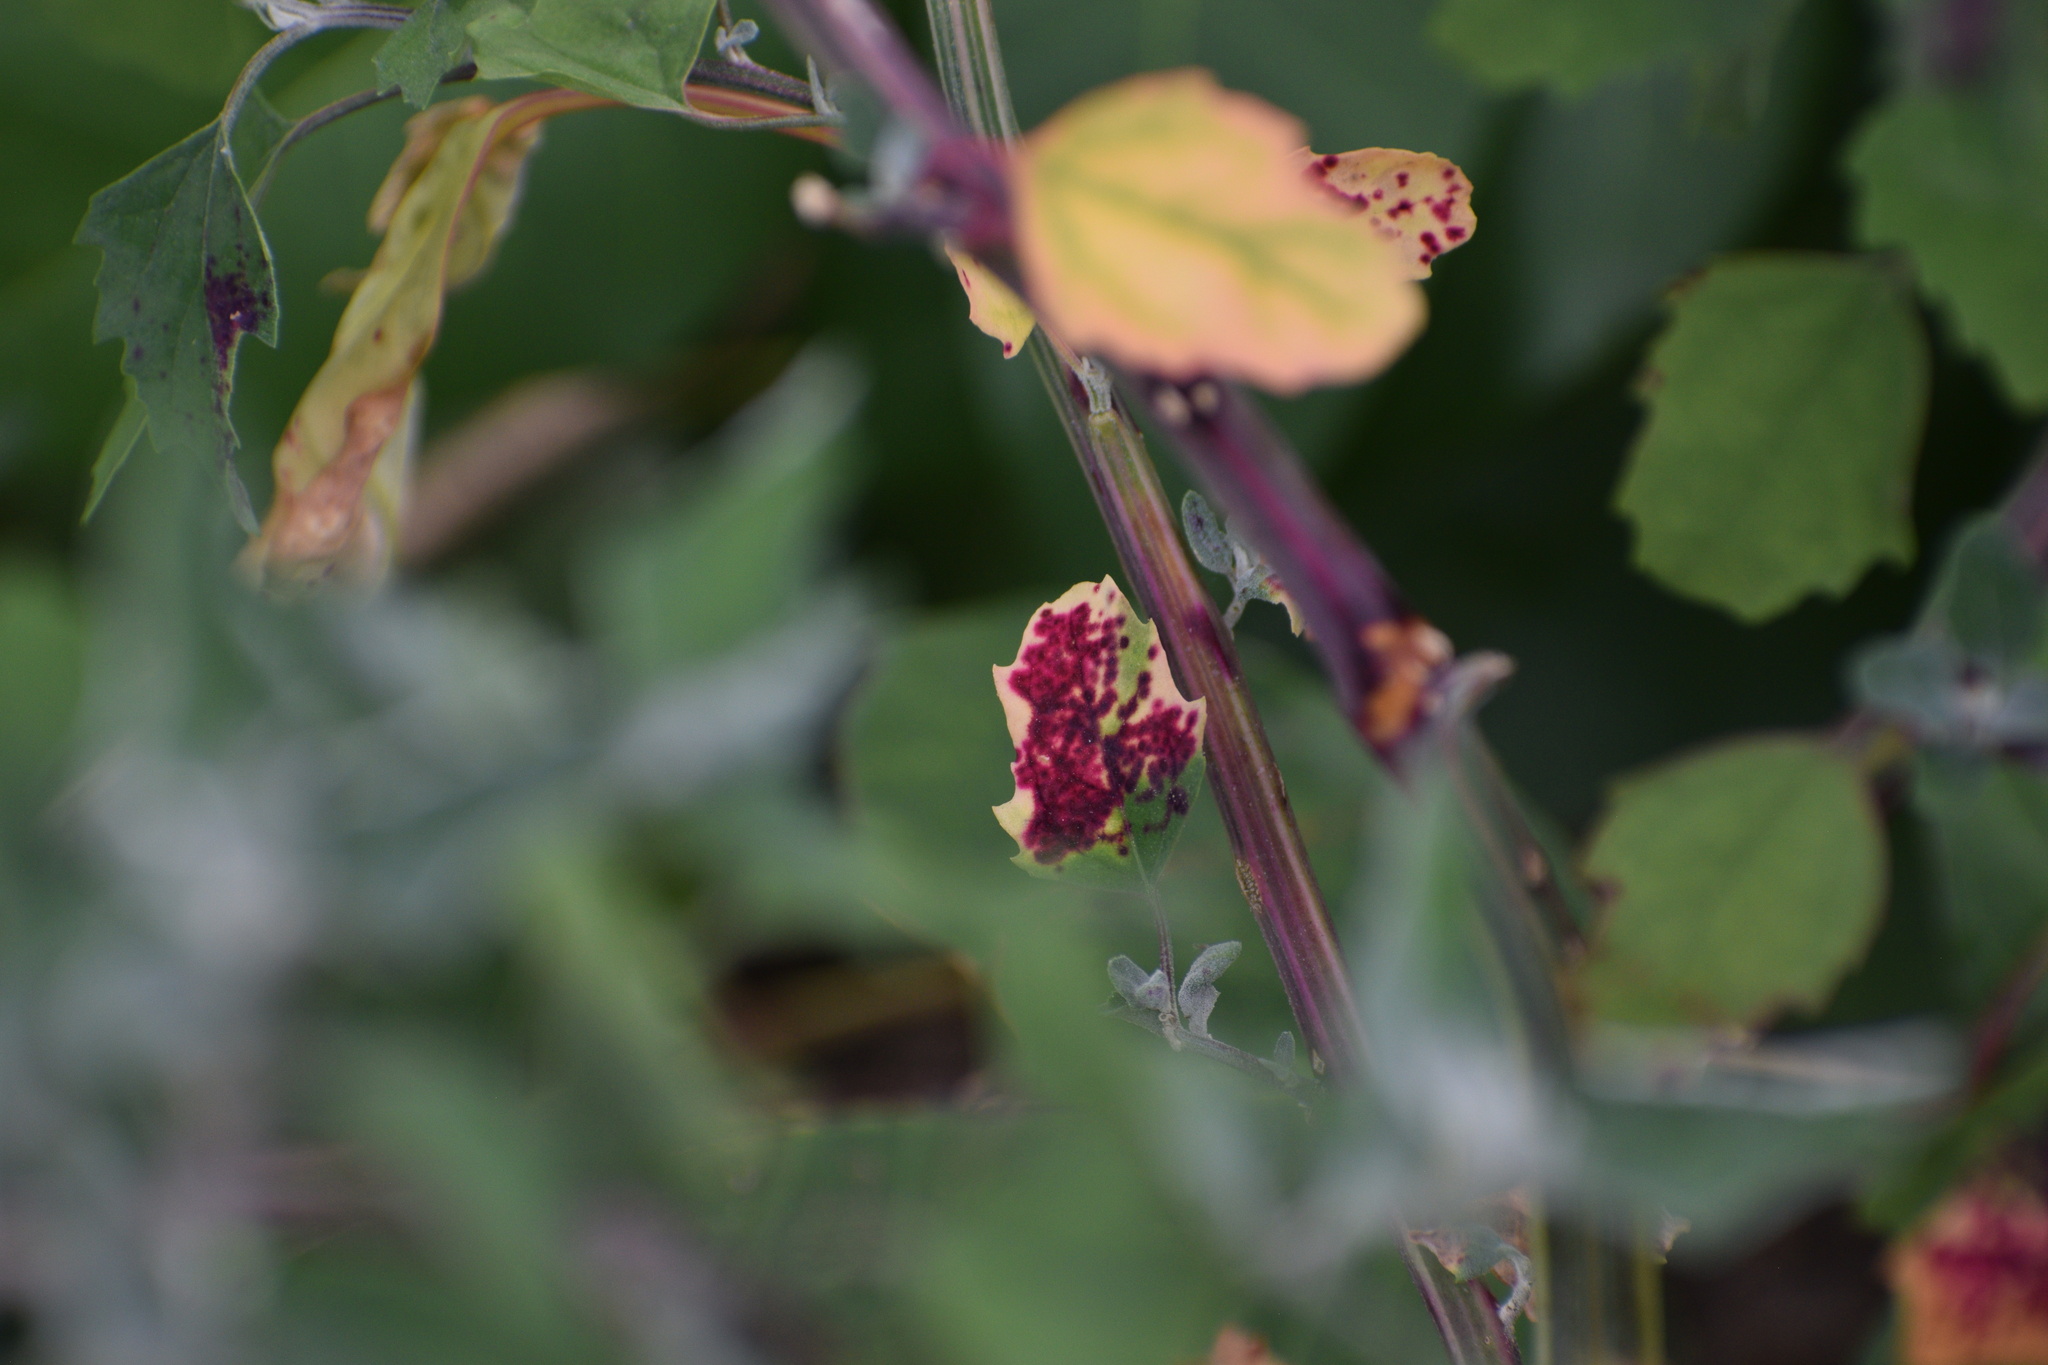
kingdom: Animalia
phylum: Arthropoda
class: Insecta
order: Hemiptera
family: Cicadellidae
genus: Norvellina
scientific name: Norvellina chenopodii
